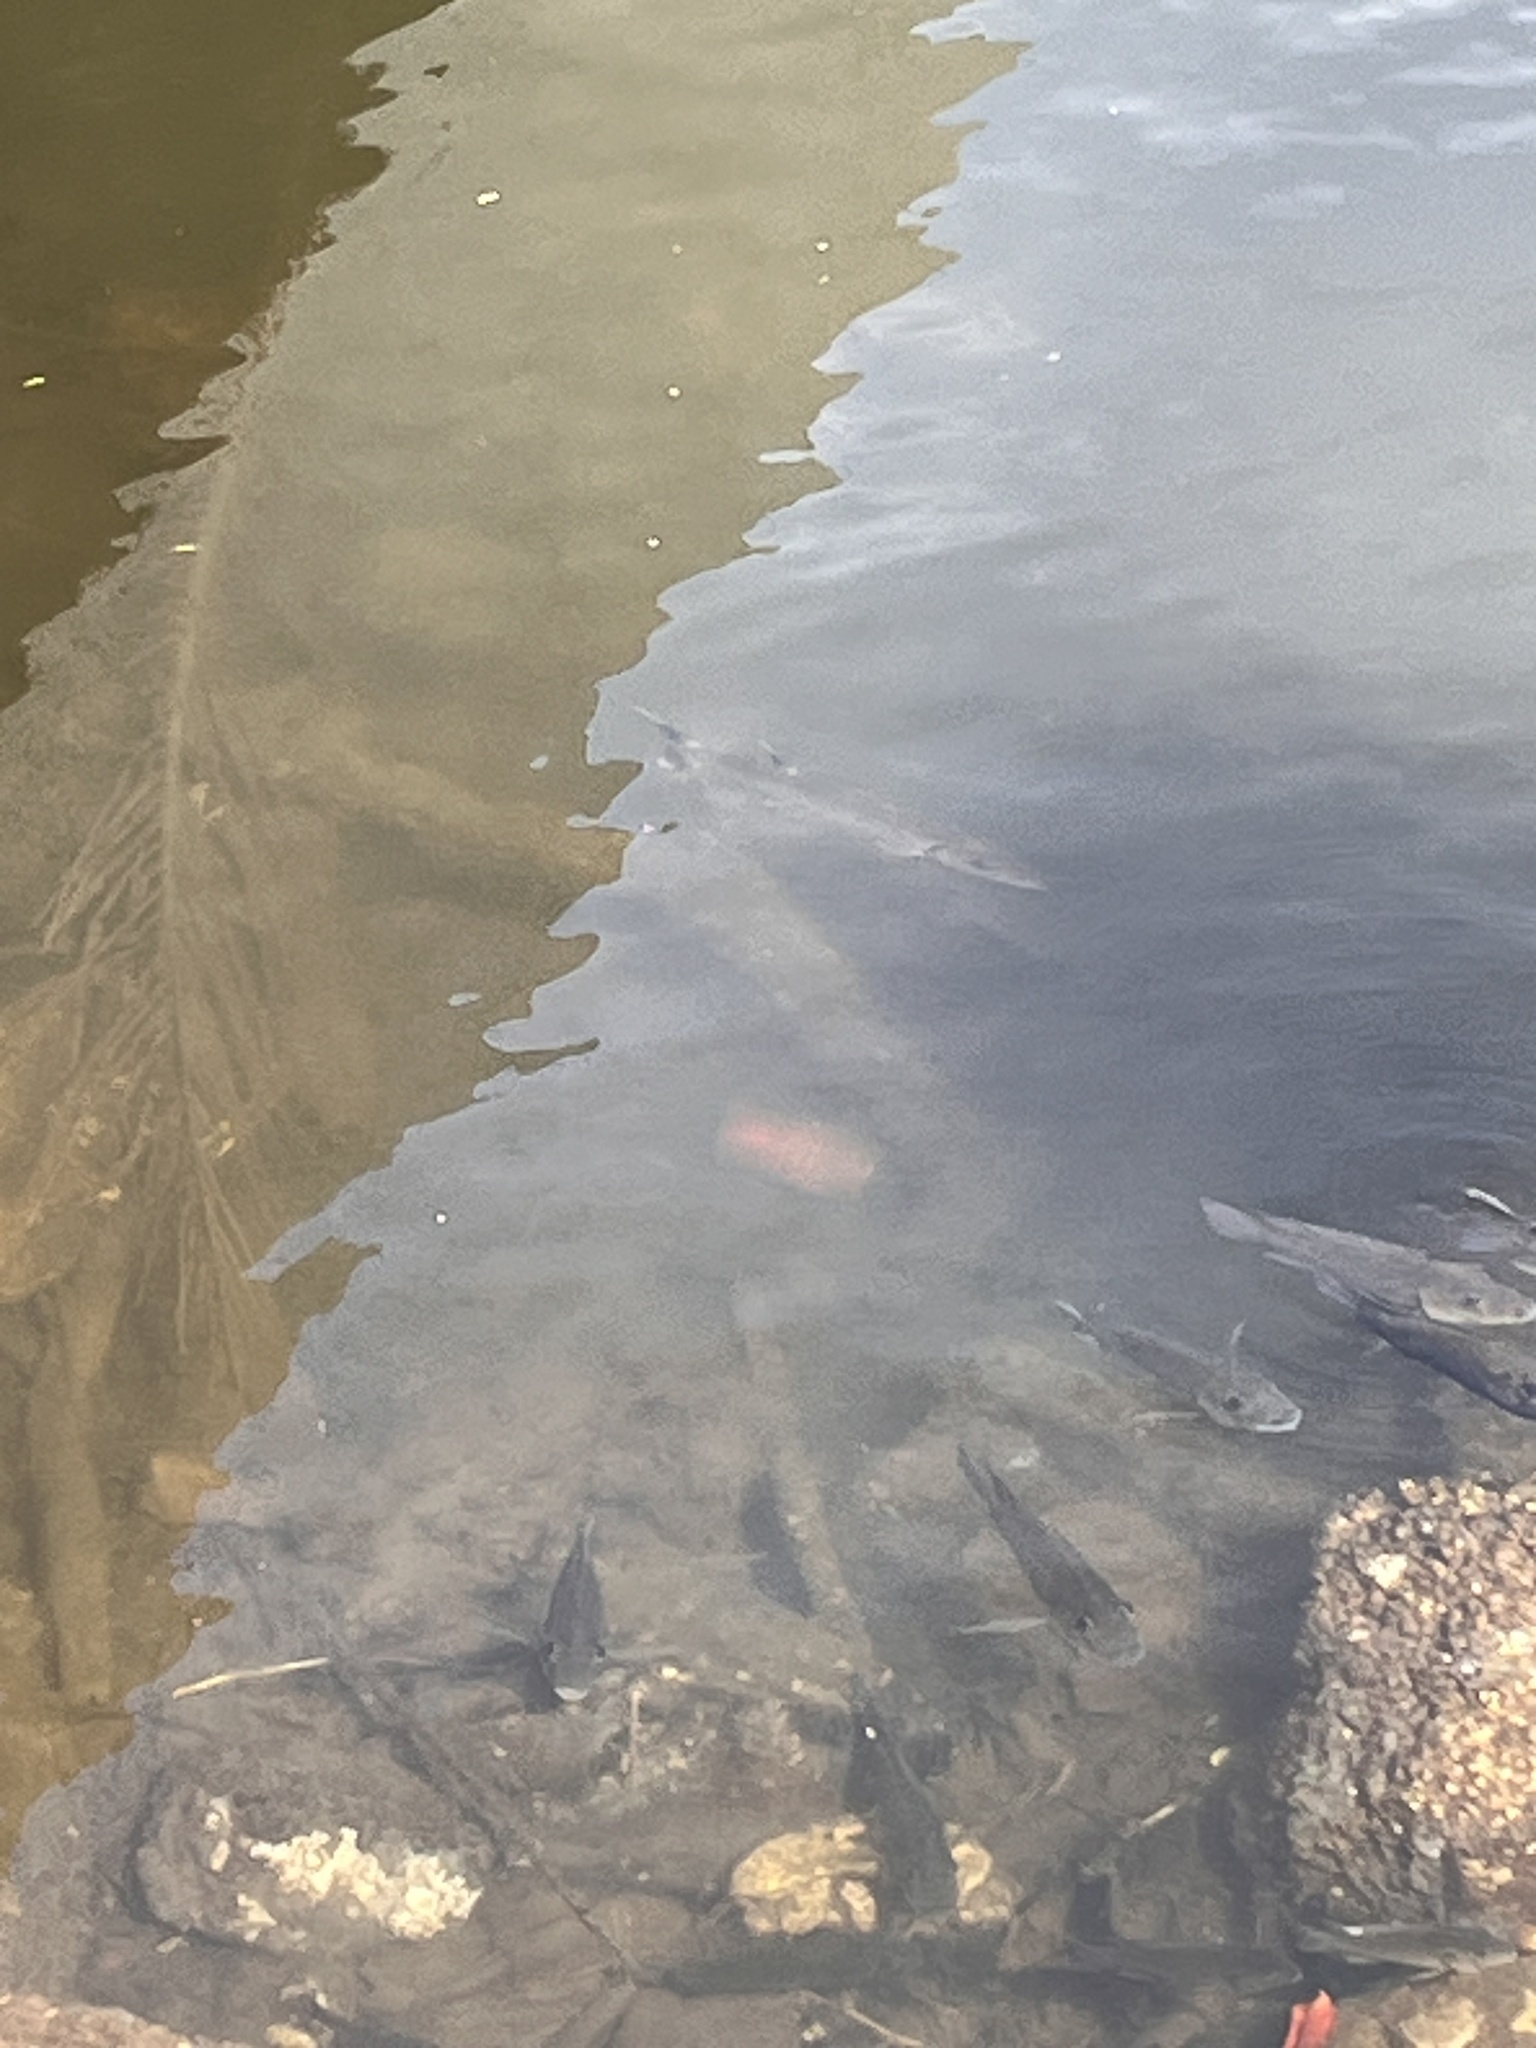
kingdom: Animalia
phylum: Chordata
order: Perciformes
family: Sphyraenidae
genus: Sphyraena
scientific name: Sphyraena barracuda
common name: Great barracuda
